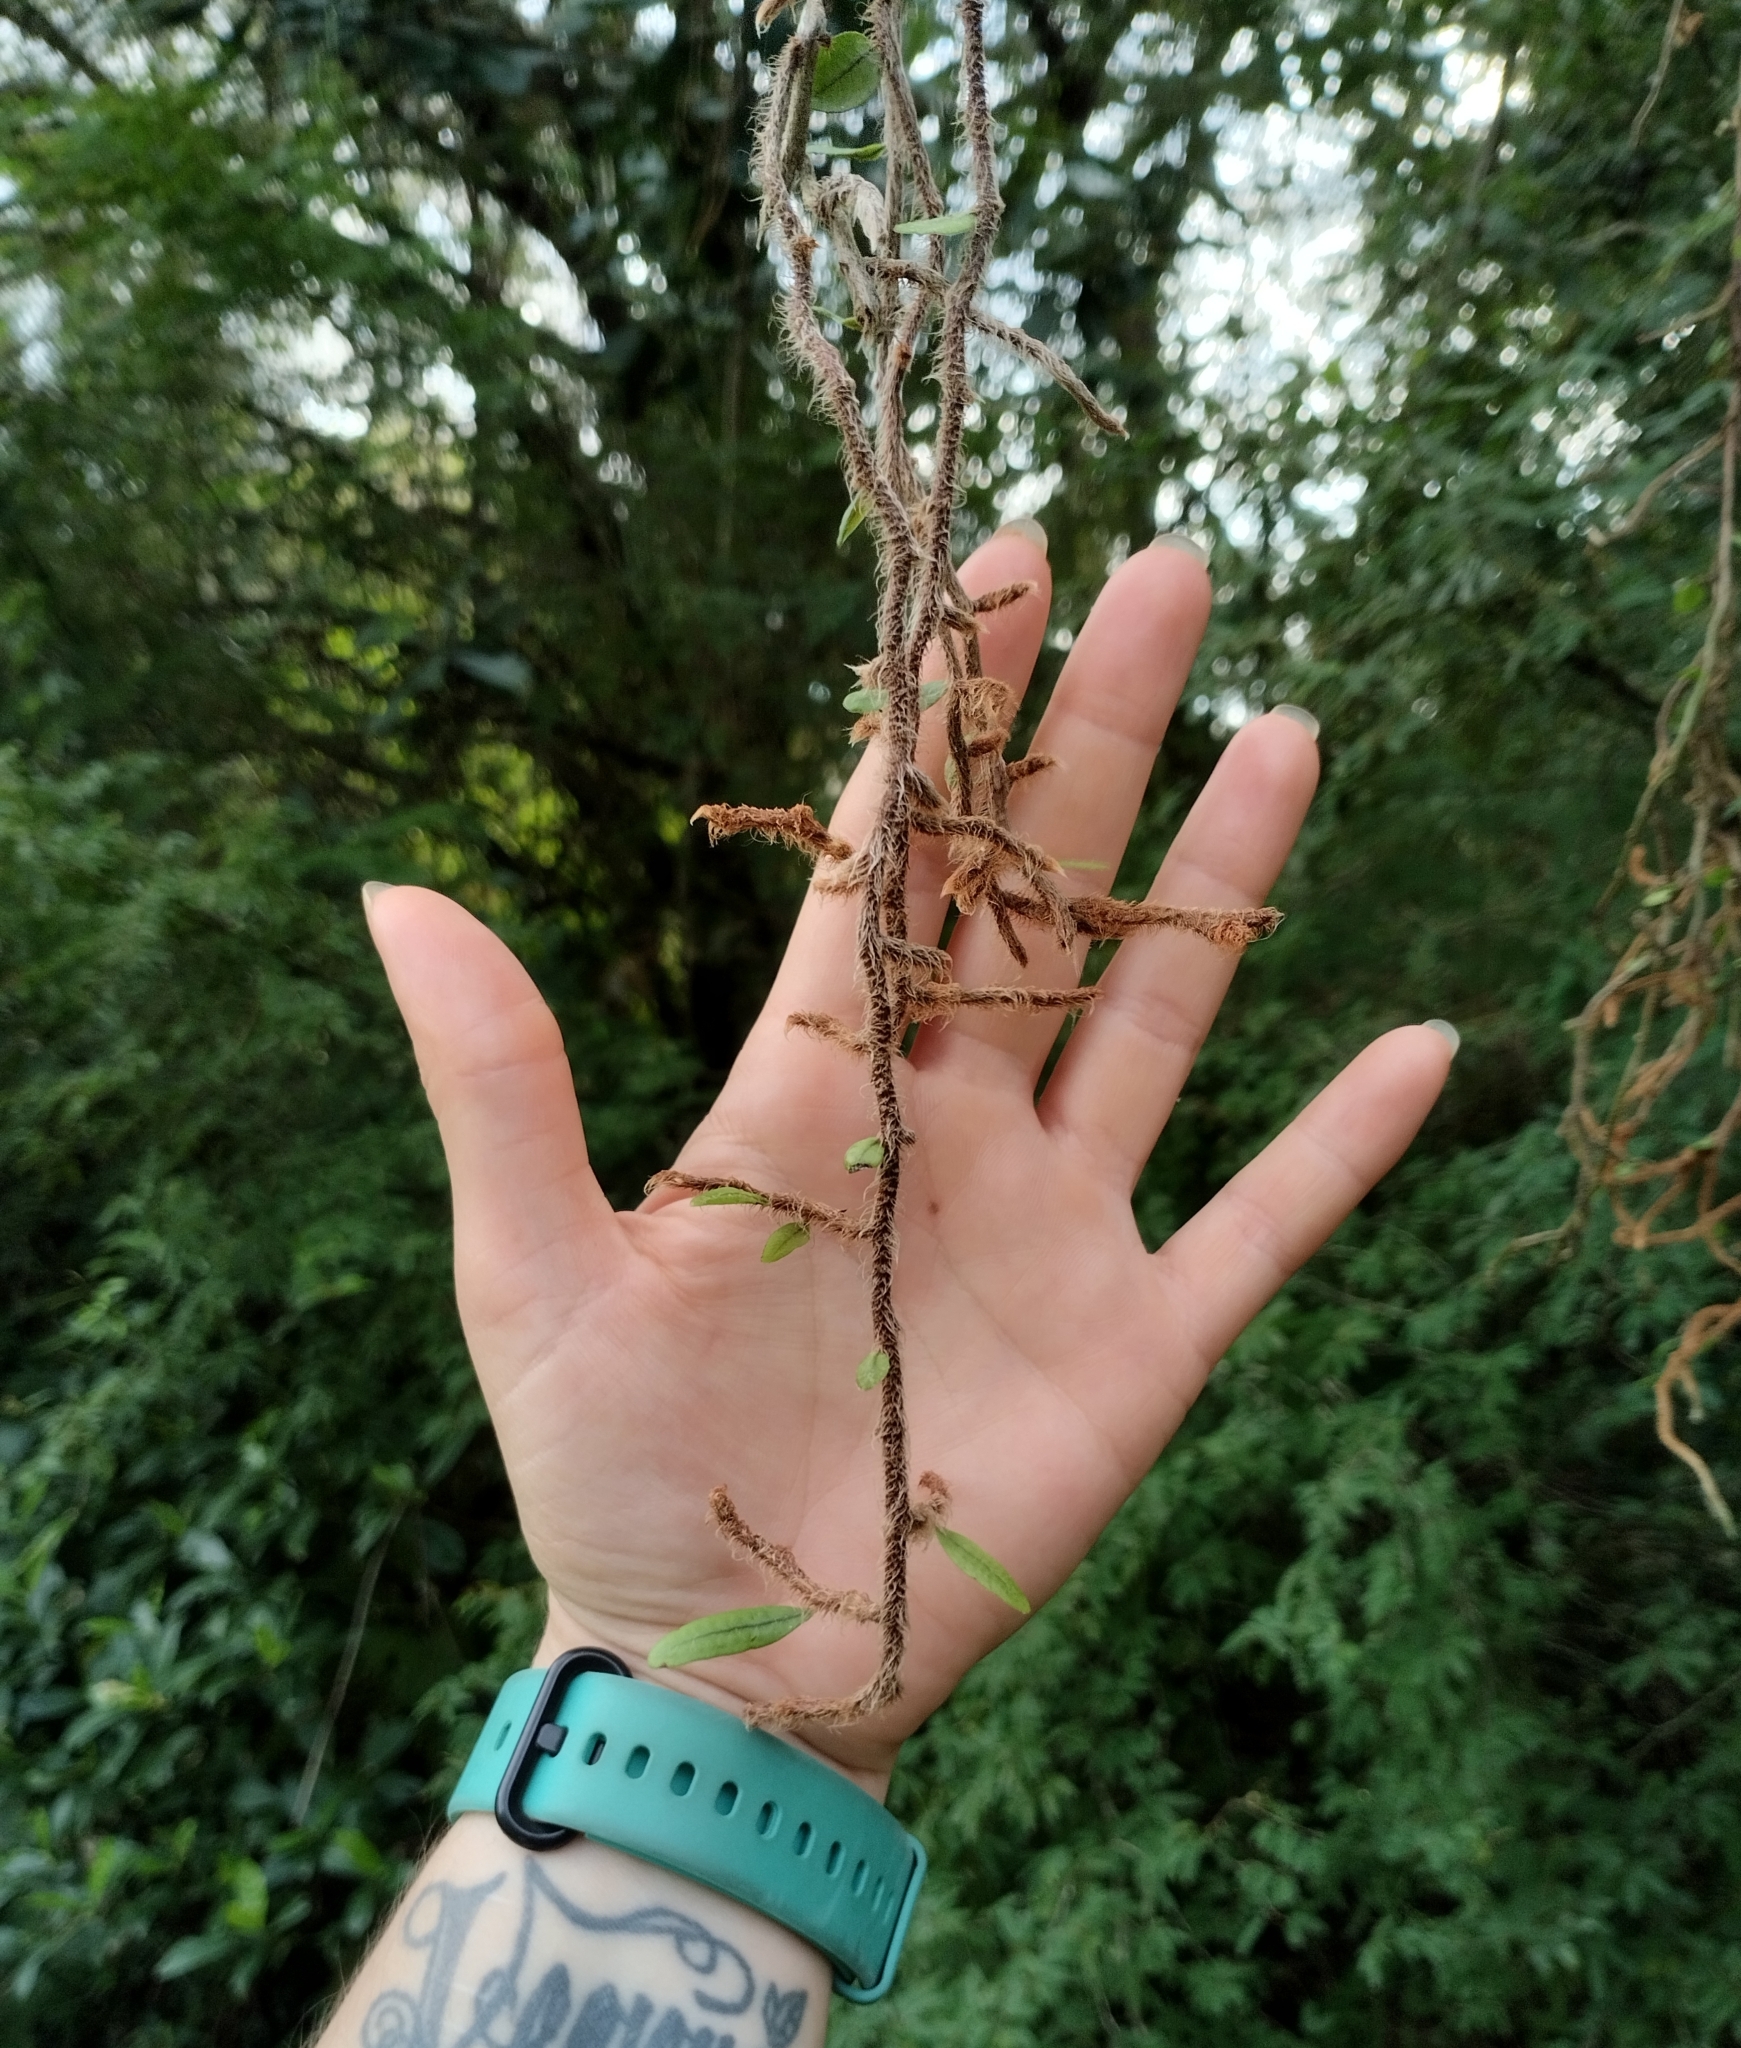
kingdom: Plantae
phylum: Tracheophyta
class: Polypodiopsida
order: Polypodiales
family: Polypodiaceae
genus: Microgramma
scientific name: Microgramma vaccinifolia
